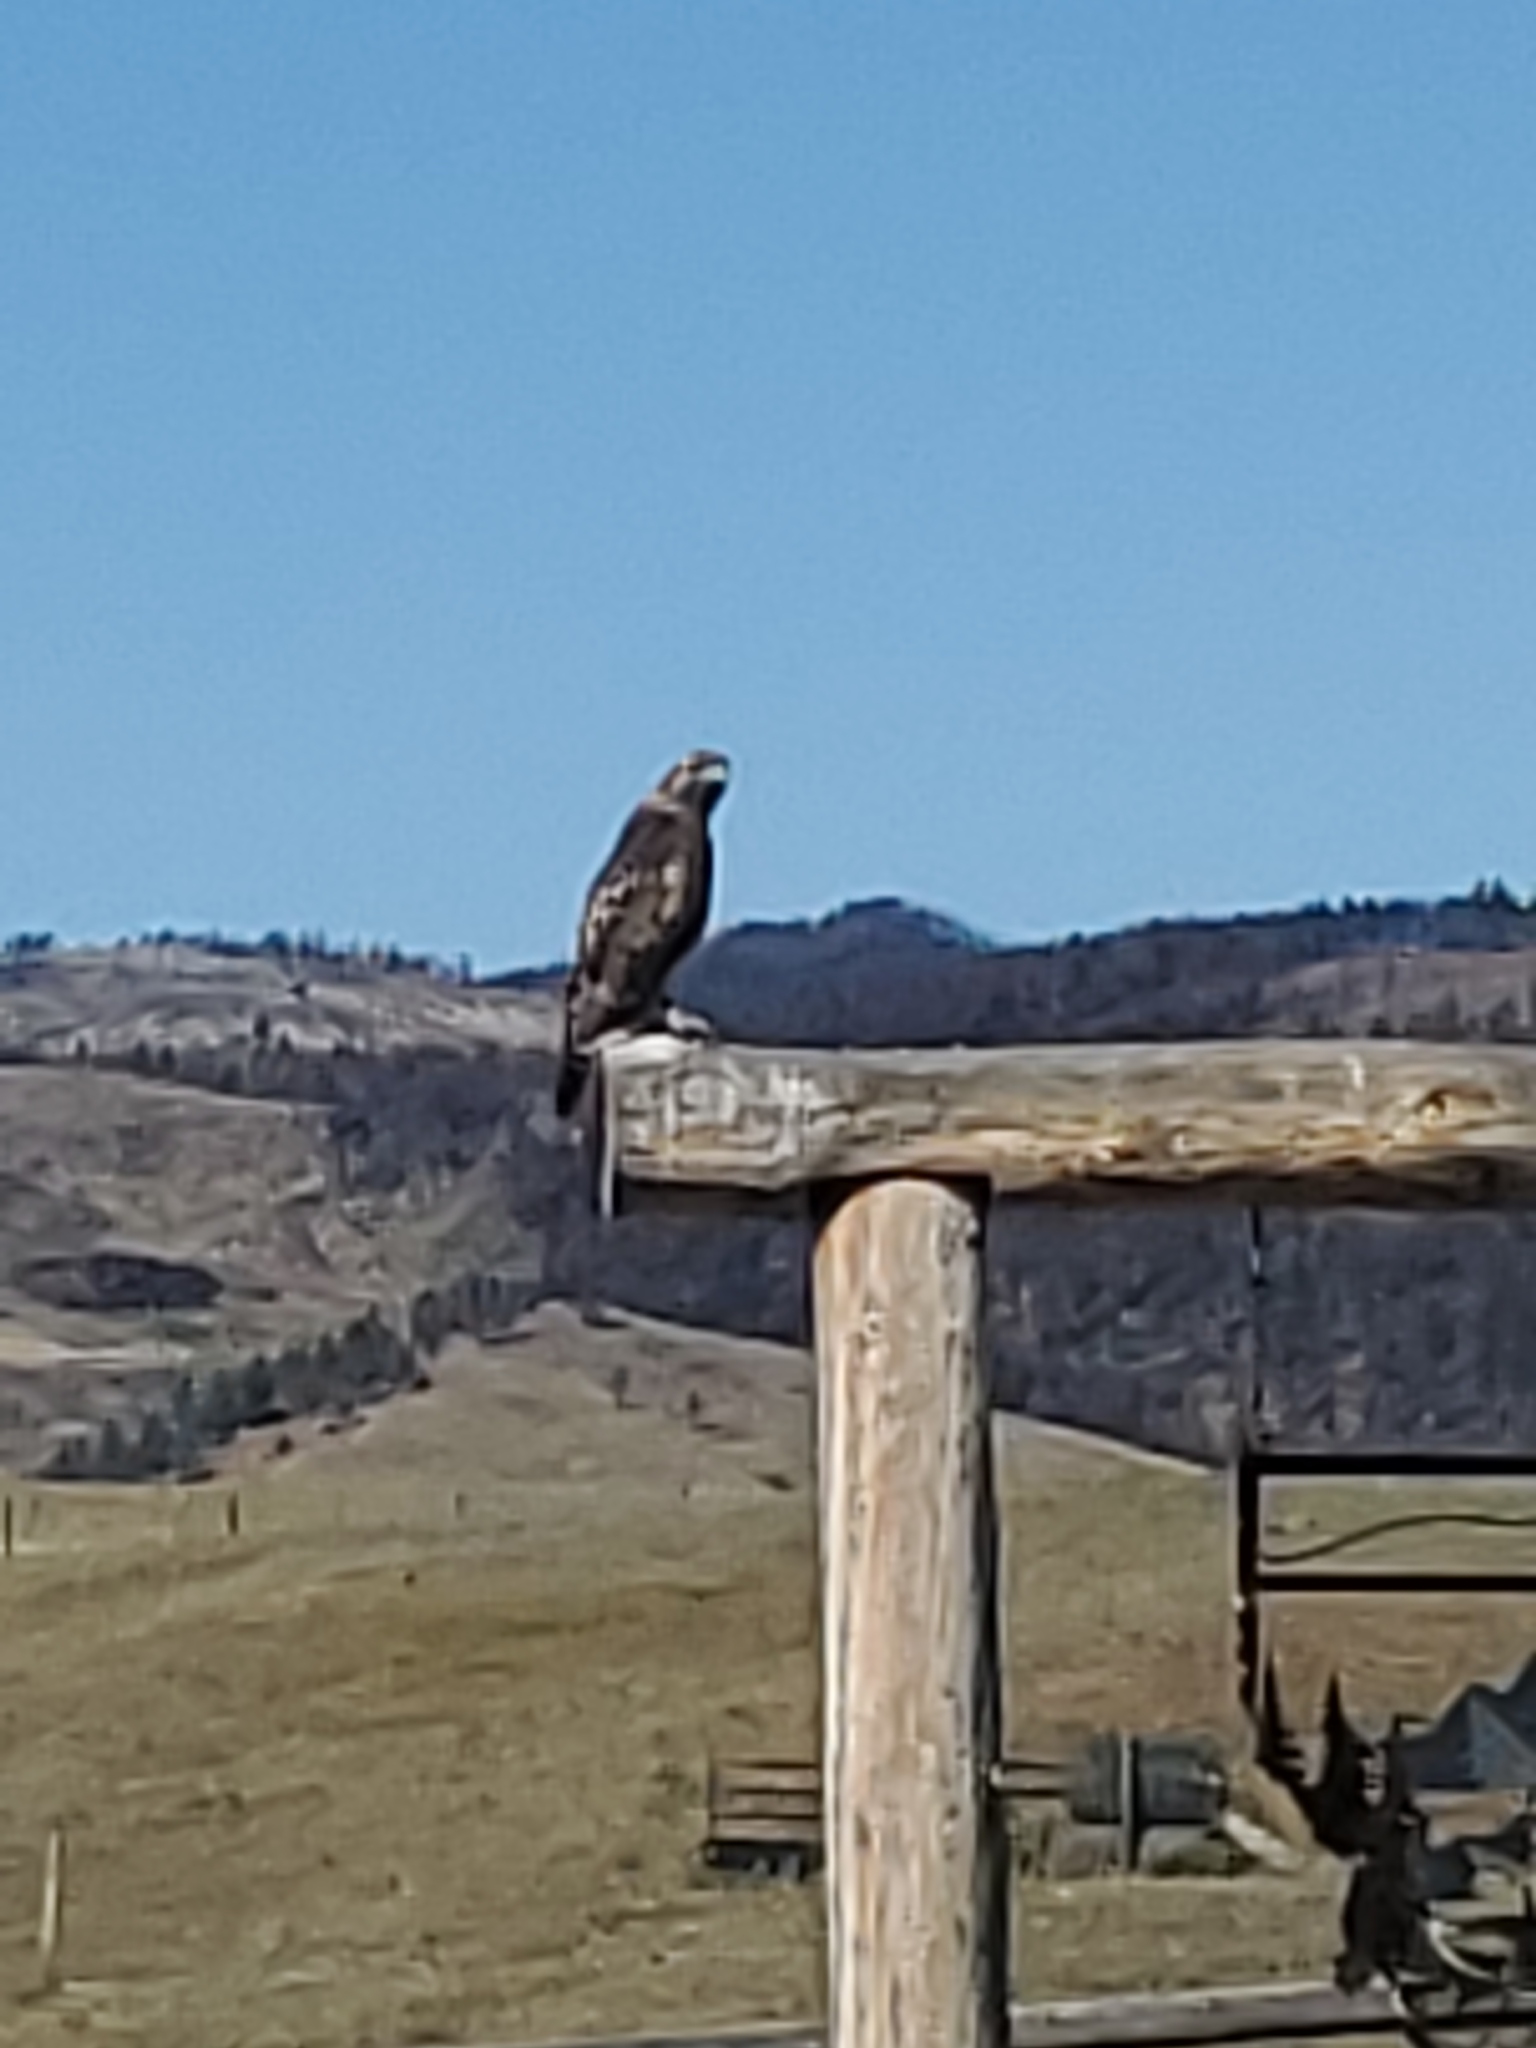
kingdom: Animalia
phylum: Chordata
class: Aves
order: Accipitriformes
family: Accipitridae
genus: Buteo
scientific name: Buteo jamaicensis
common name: Red-tailed hawk
